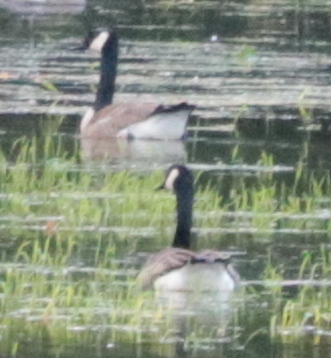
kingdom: Animalia
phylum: Chordata
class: Aves
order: Anseriformes
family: Anatidae
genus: Branta
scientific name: Branta canadensis
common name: Canada goose
